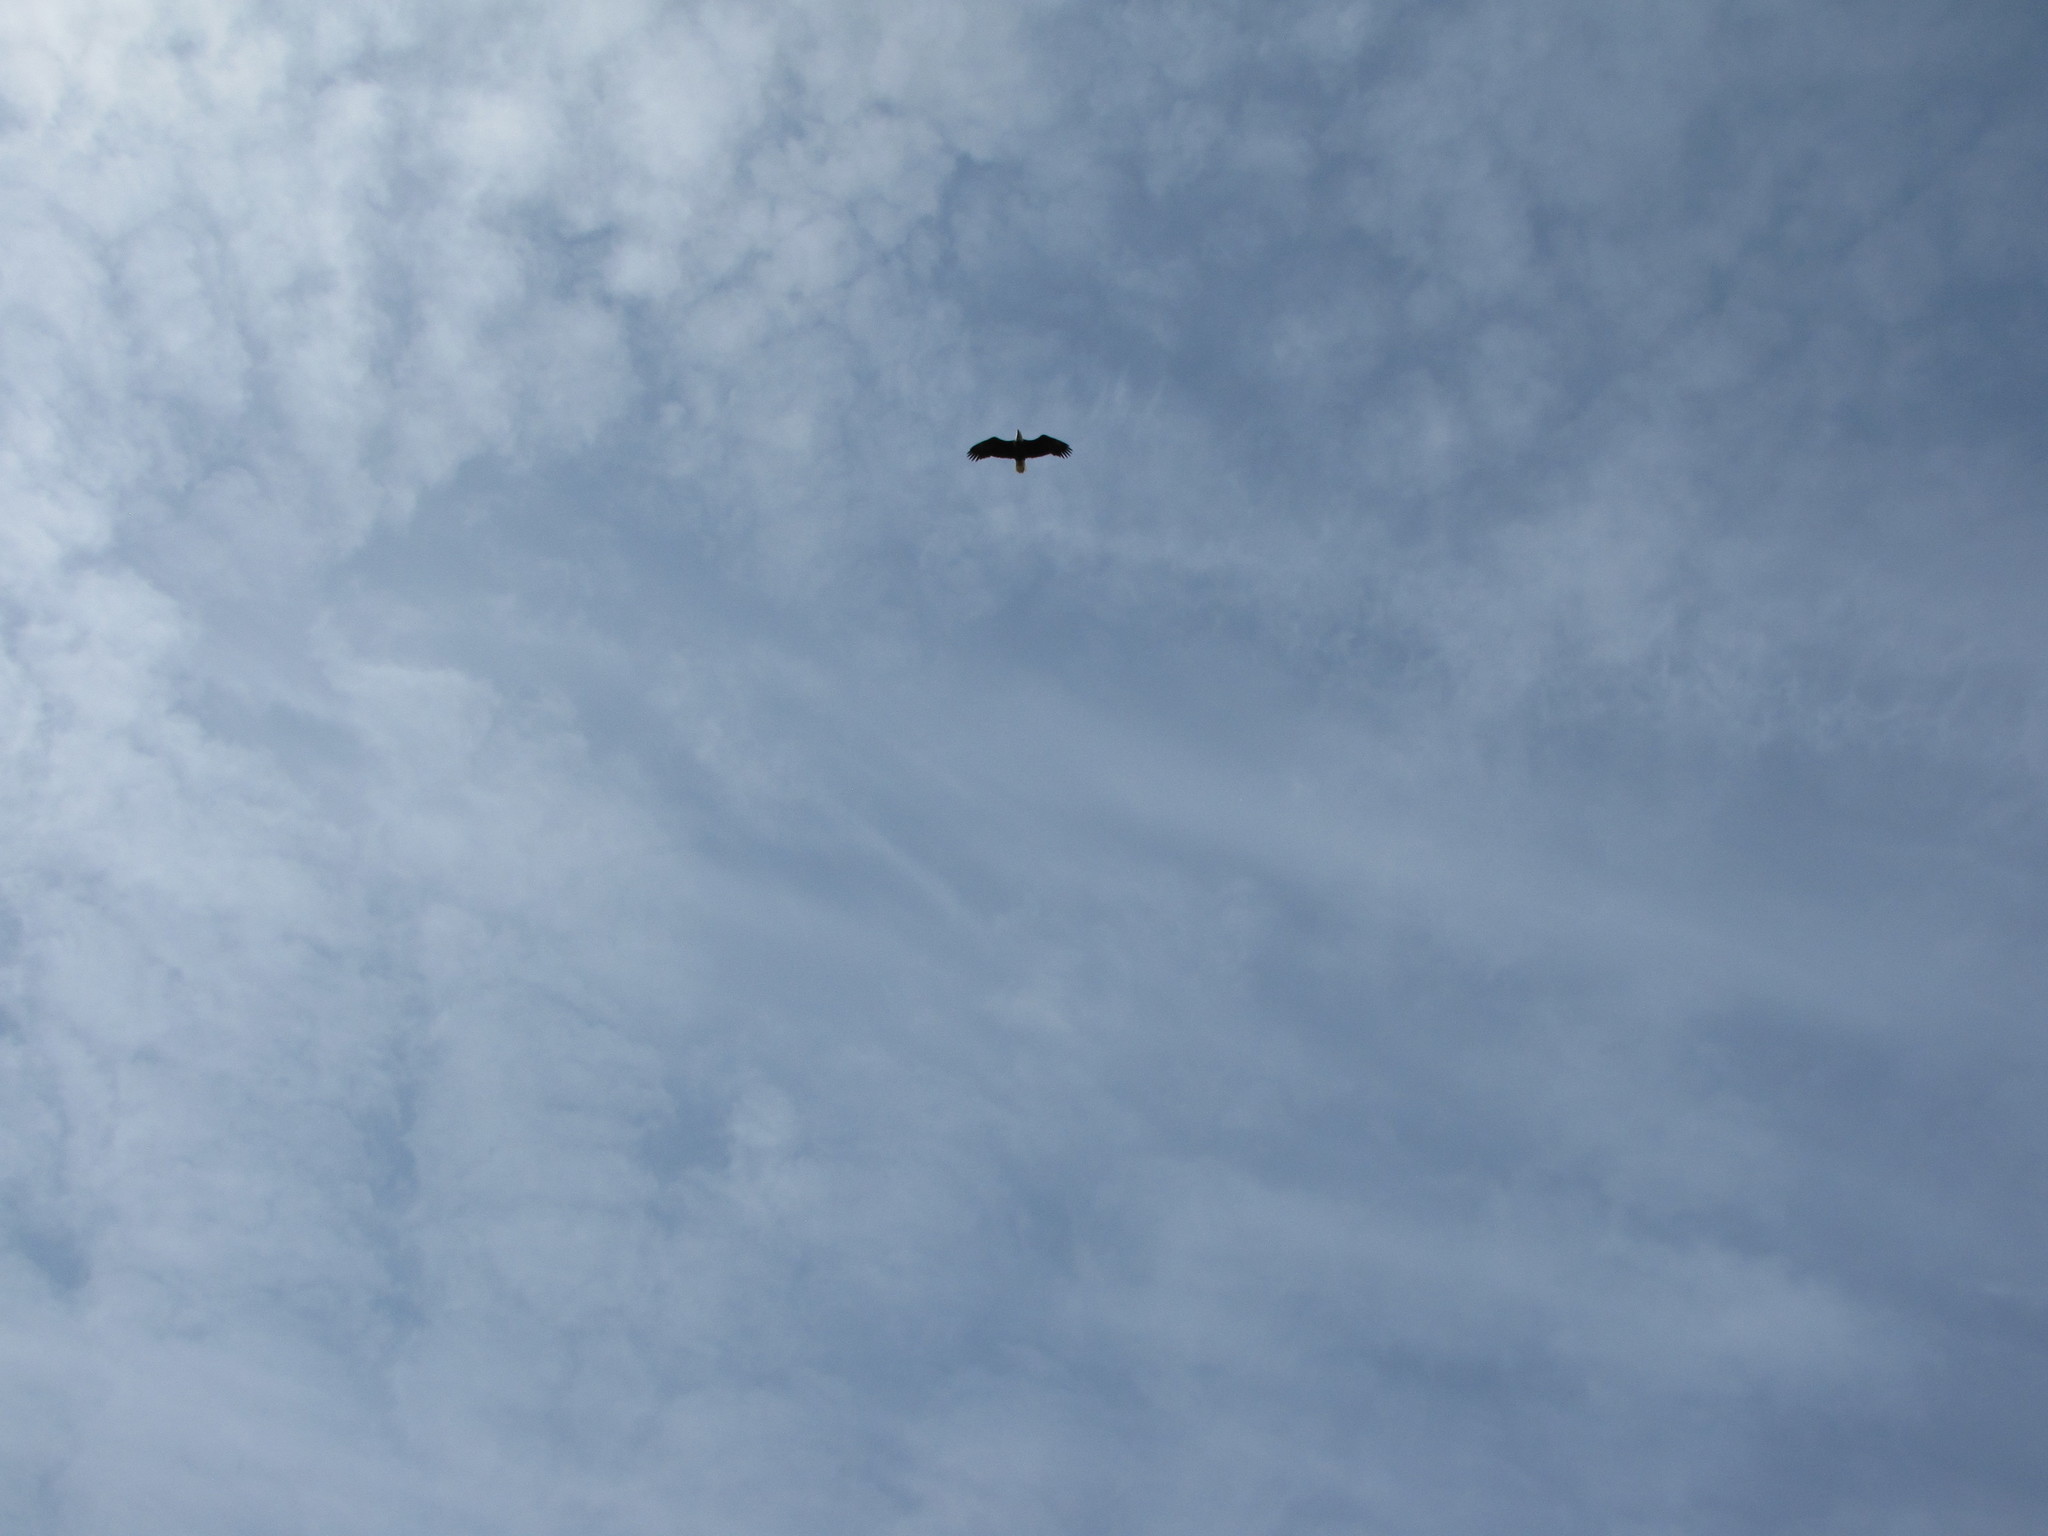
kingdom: Animalia
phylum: Chordata
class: Aves
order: Accipitriformes
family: Accipitridae
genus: Haliaeetus
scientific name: Haliaeetus leucocephalus
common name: Bald eagle
